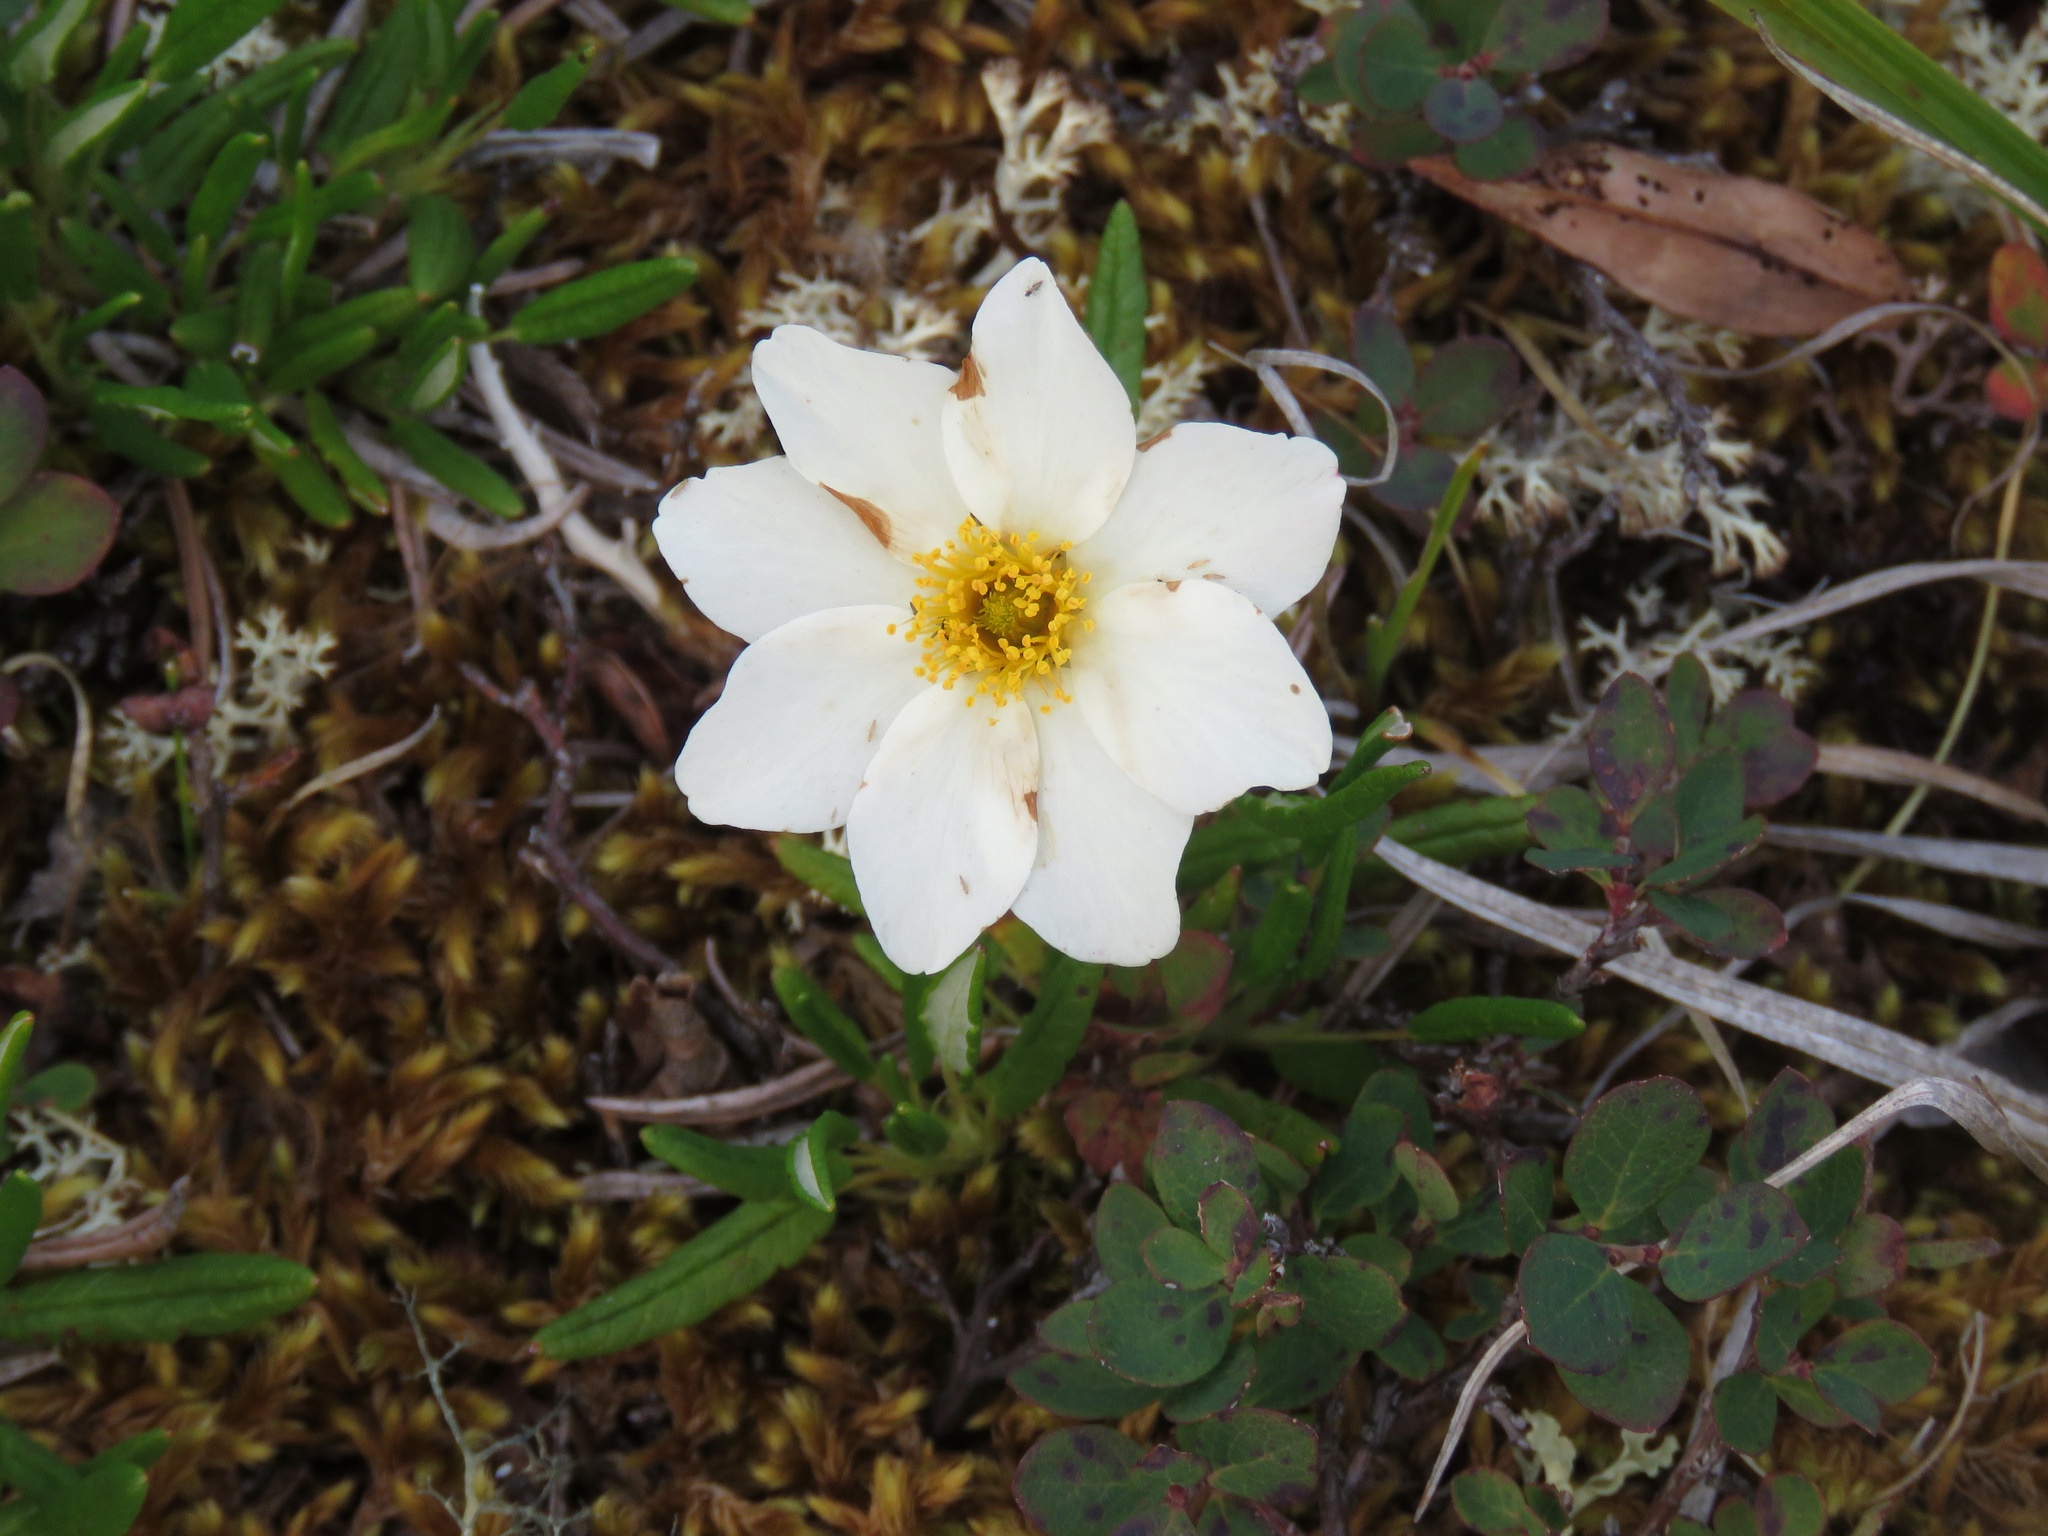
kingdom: Plantae
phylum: Tracheophyta
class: Magnoliopsida
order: Rosales
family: Rosaceae
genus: Dryas
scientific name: Dryas integrifolia
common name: Entire-leaved mountain avens
